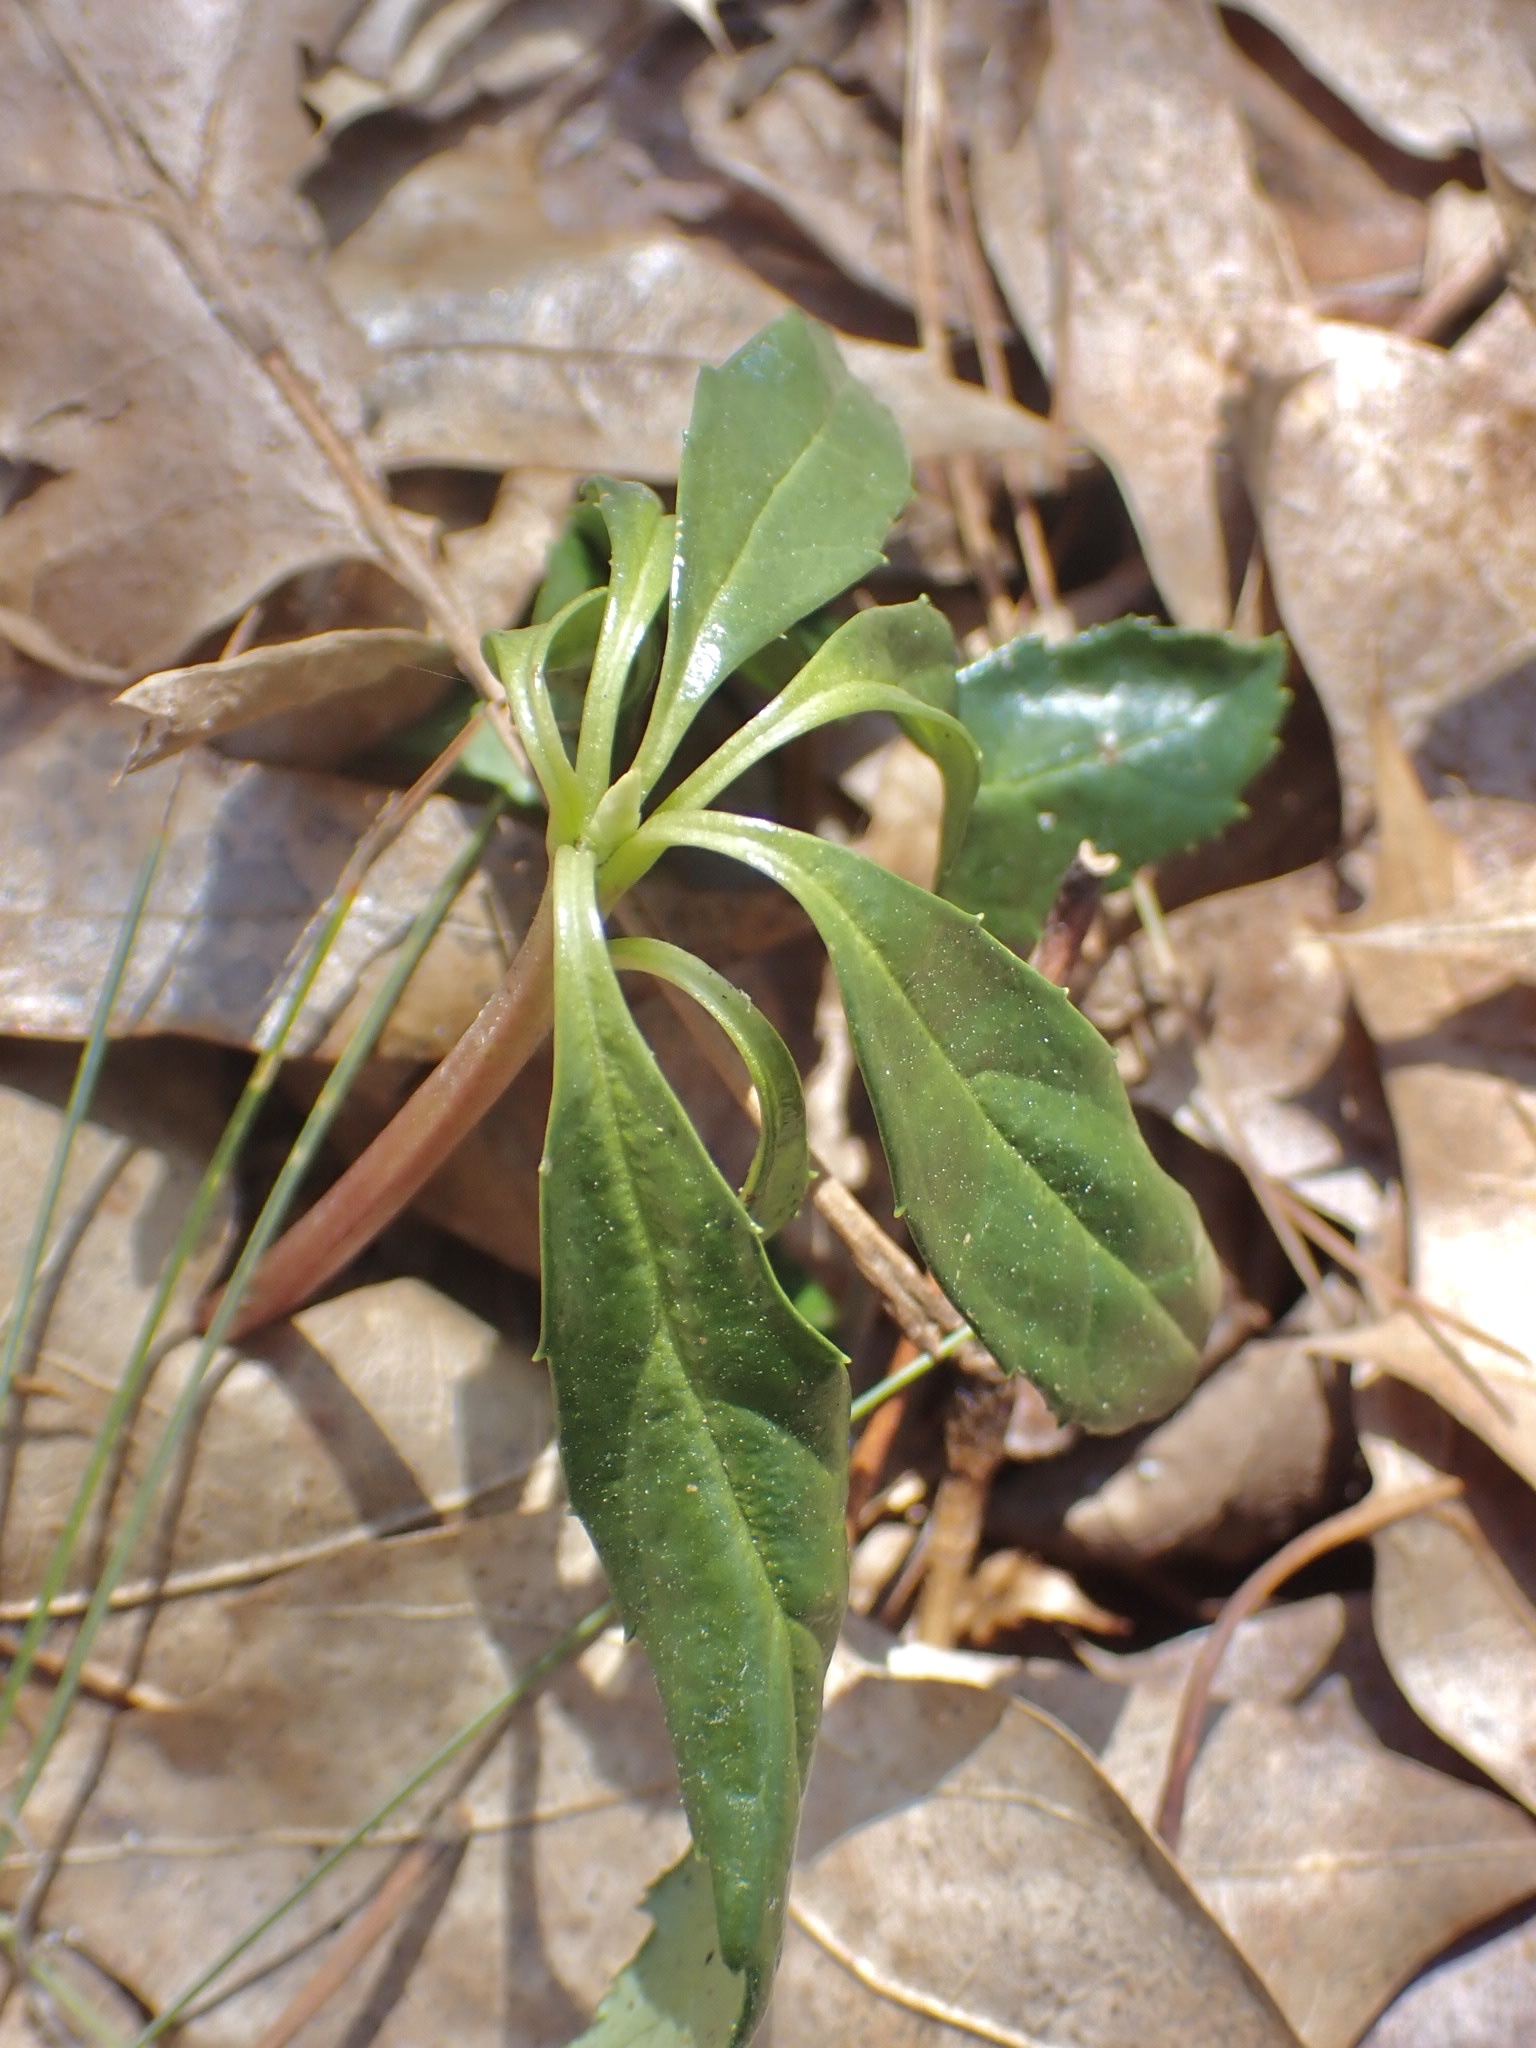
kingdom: Plantae
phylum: Tracheophyta
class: Magnoliopsida
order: Ericales
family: Ericaceae
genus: Chimaphila
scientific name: Chimaphila umbellata
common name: Pipsissewa
